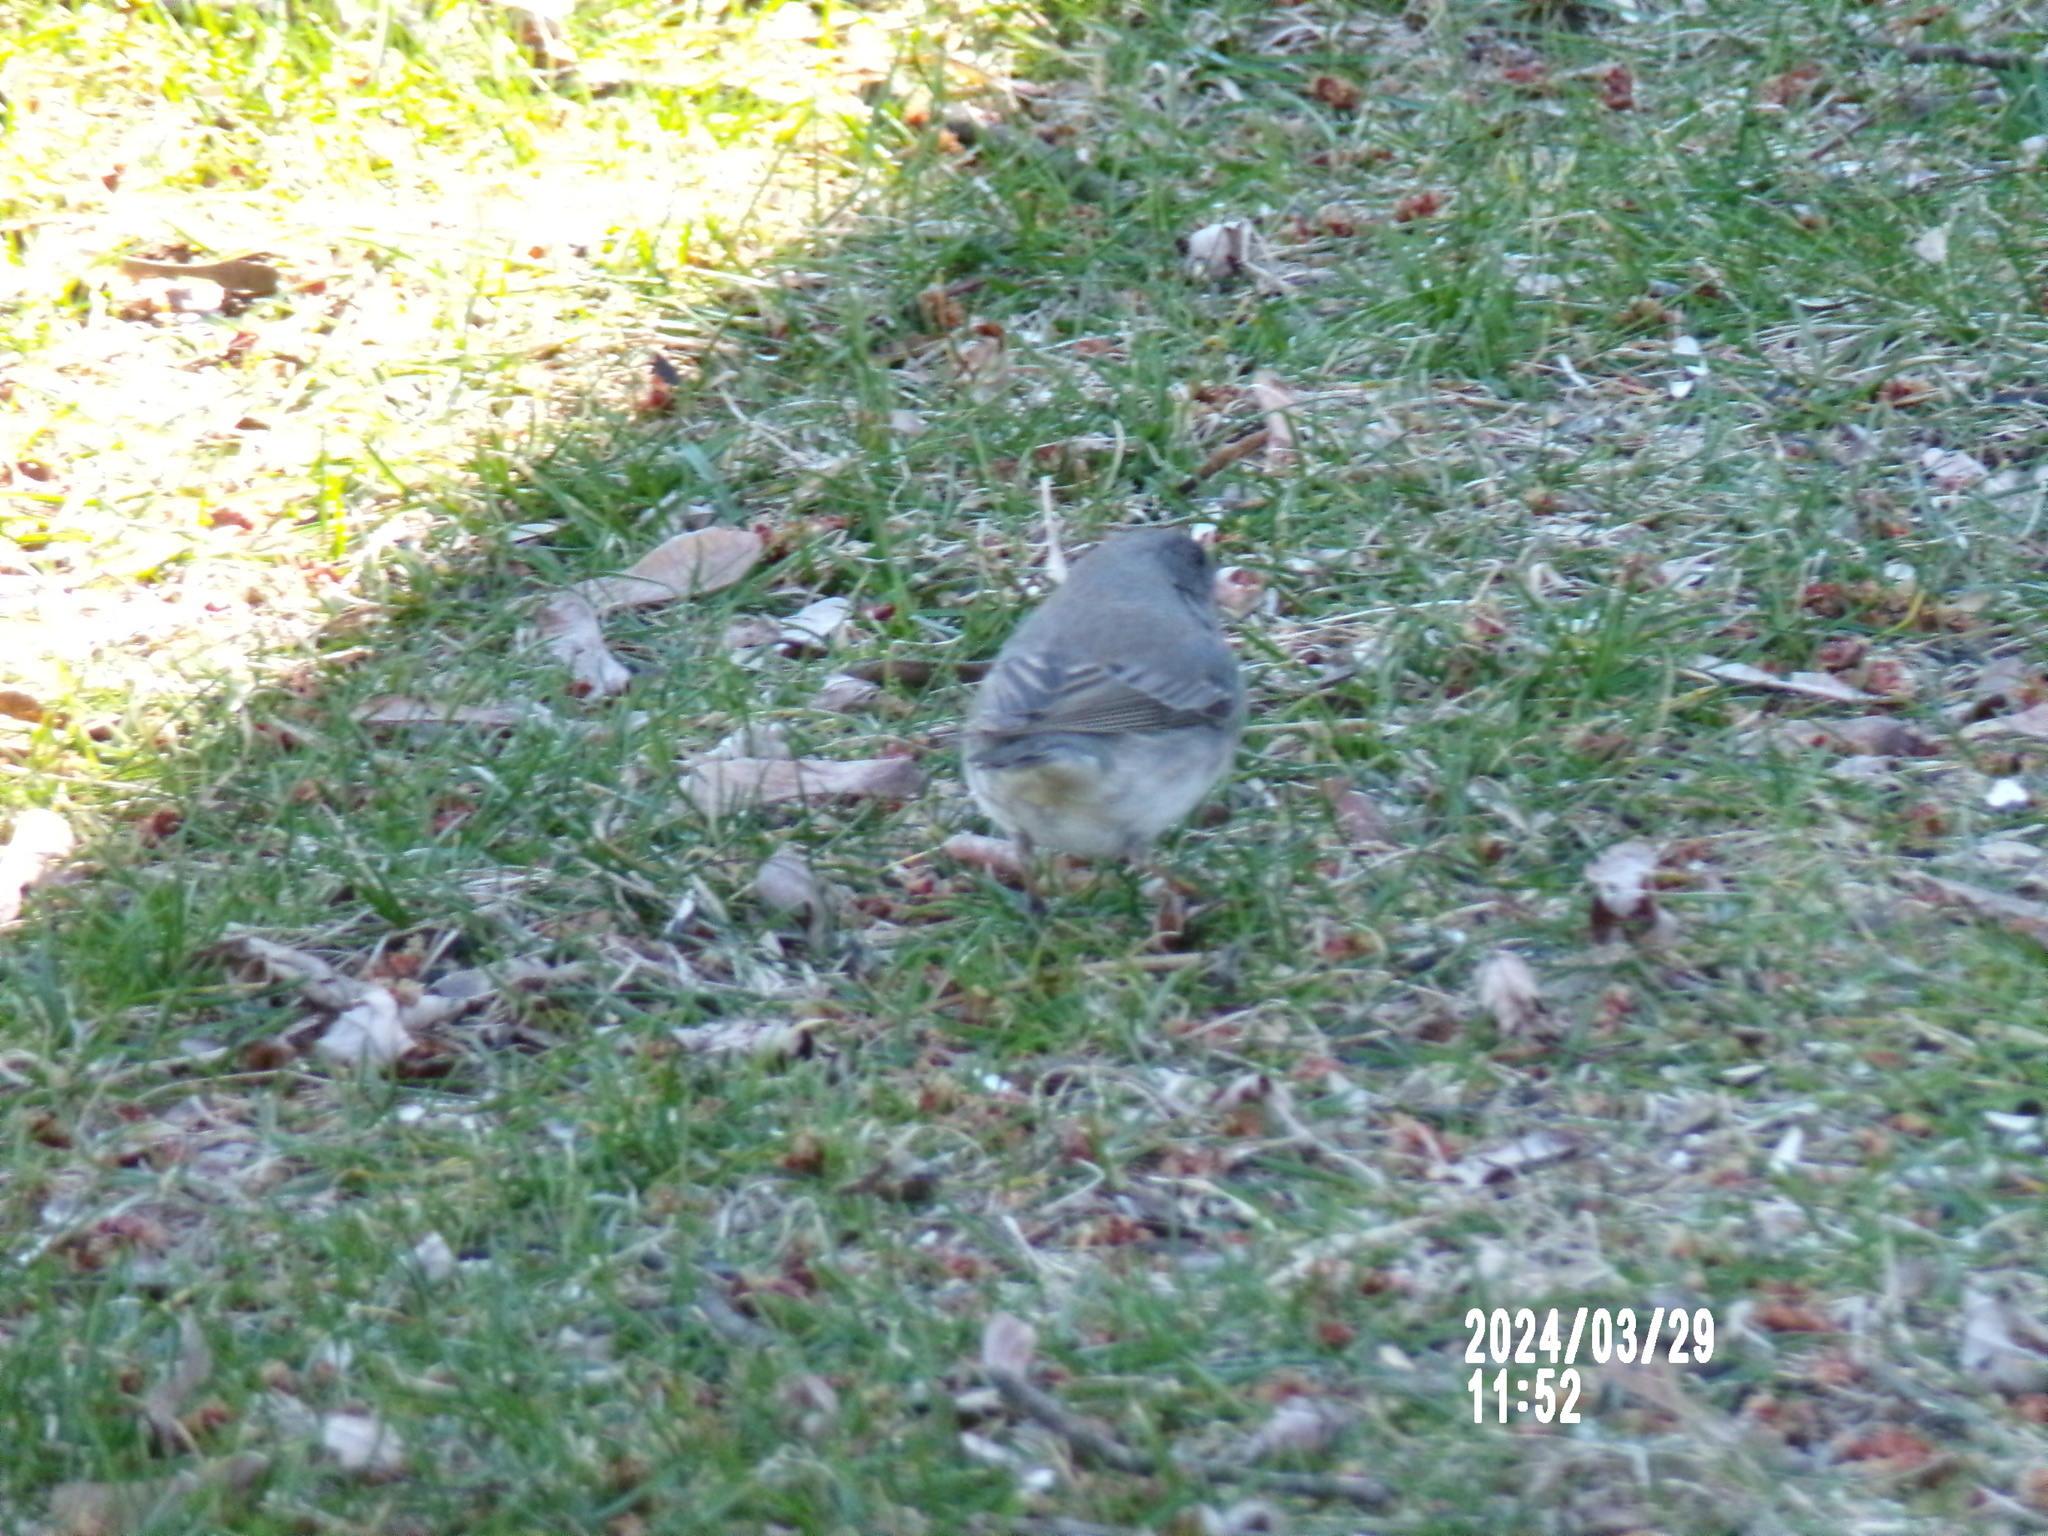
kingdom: Animalia
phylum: Chordata
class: Aves
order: Passeriformes
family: Passerellidae
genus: Junco
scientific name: Junco hyemalis
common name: Dark-eyed junco
